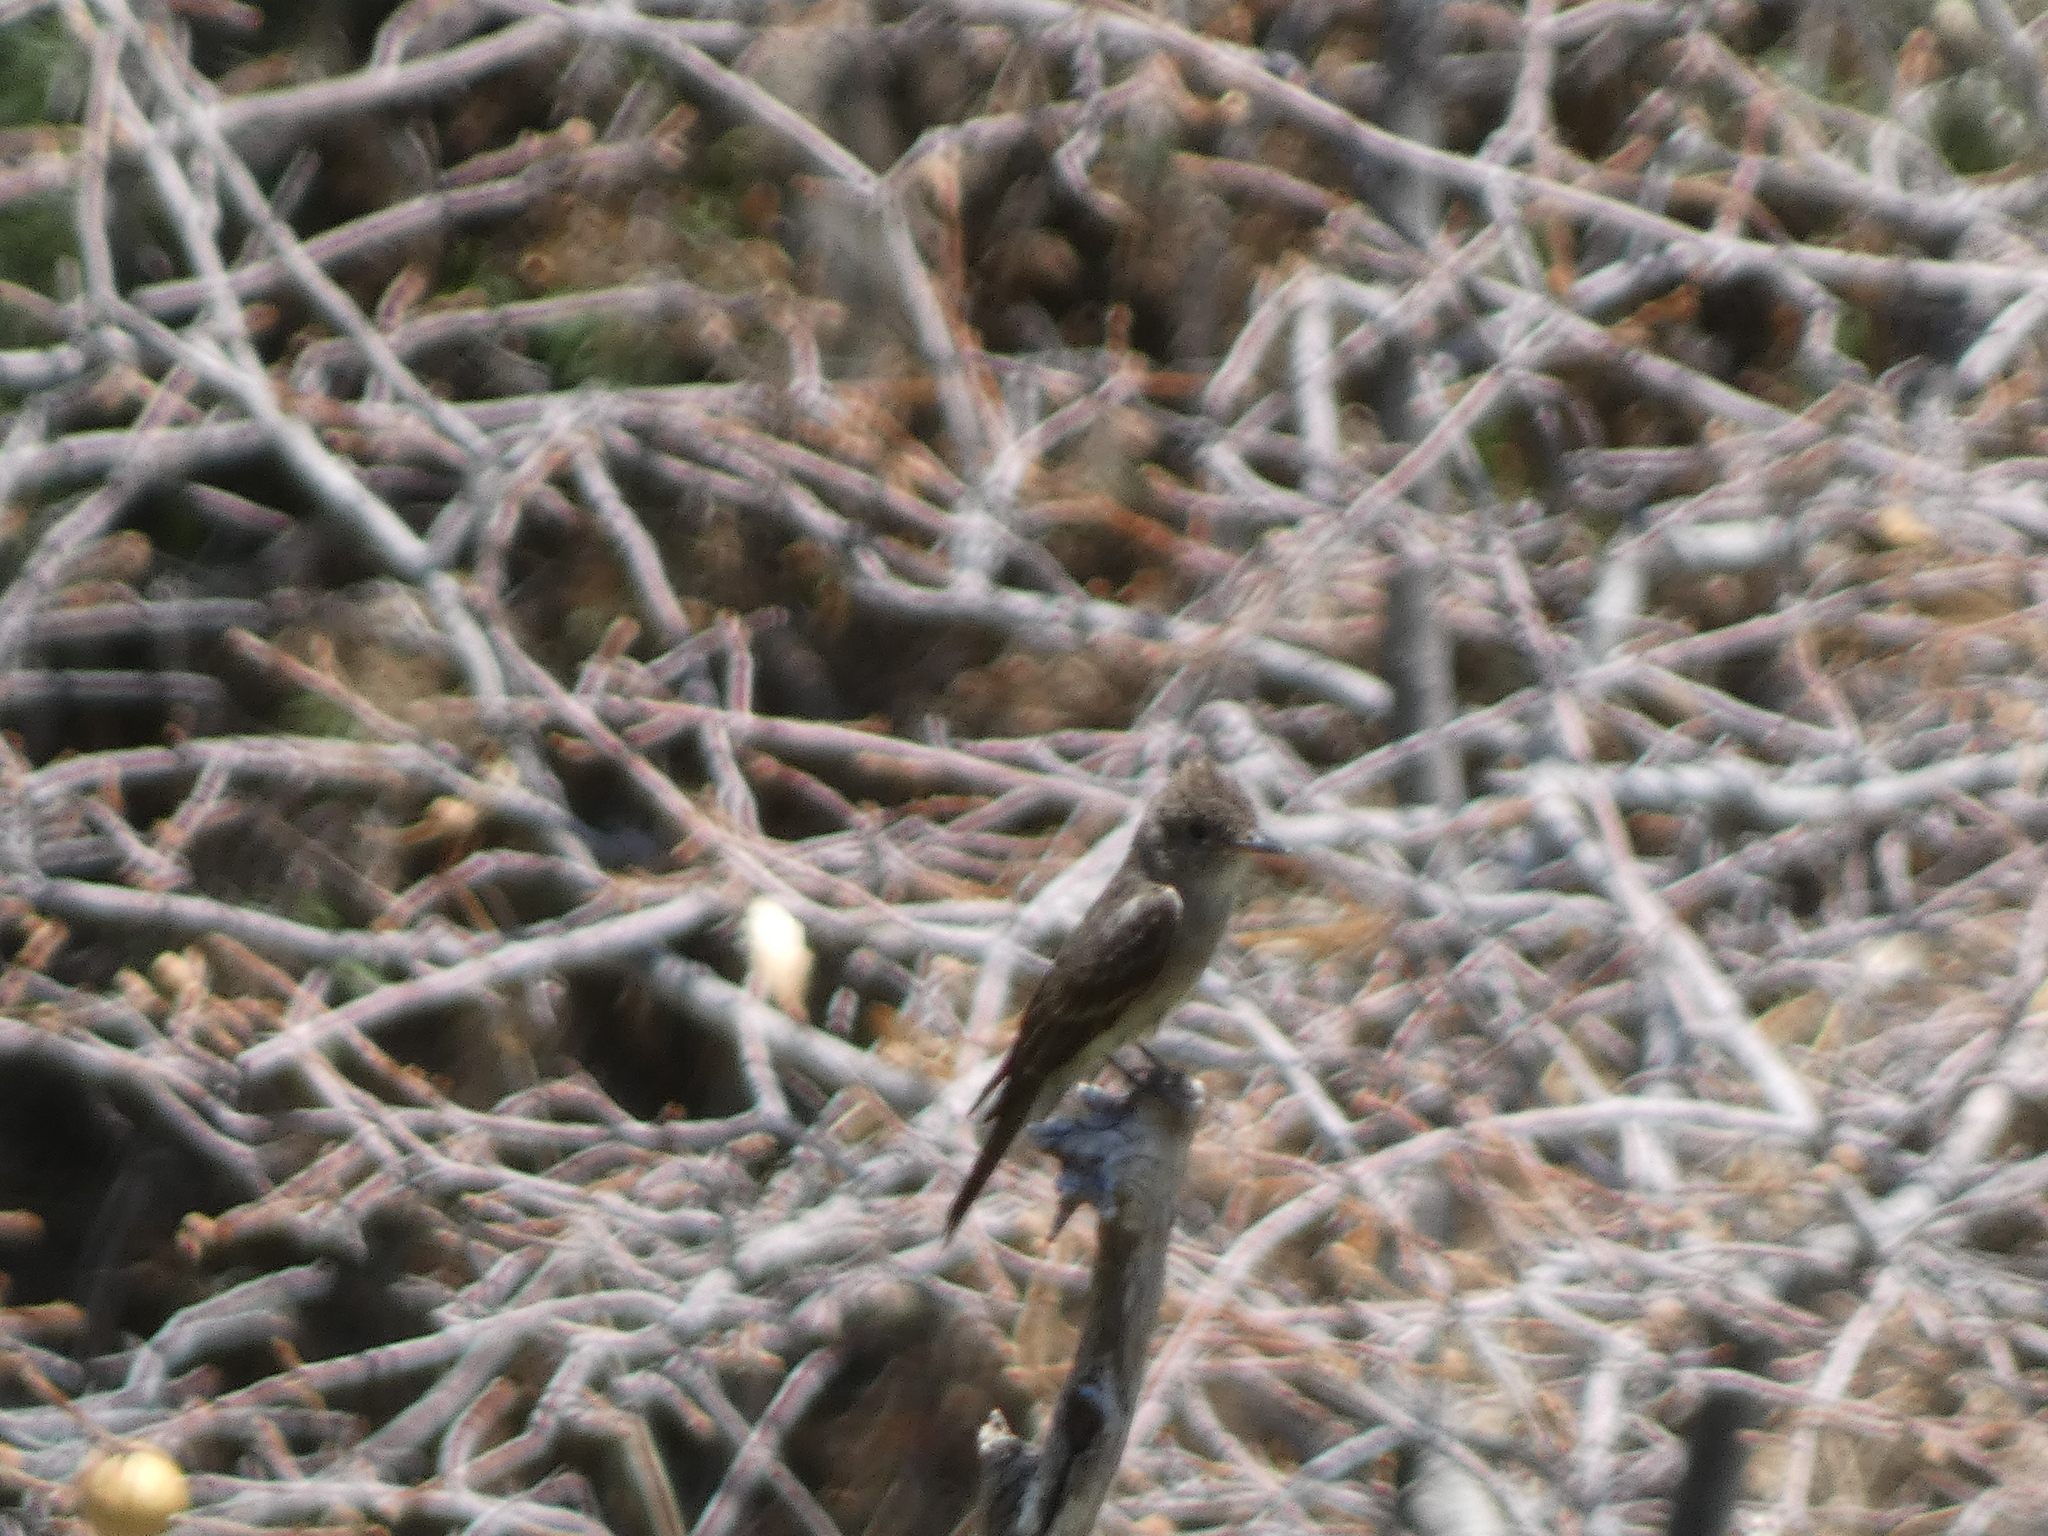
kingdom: Animalia
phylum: Chordata
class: Aves
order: Passeriformes
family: Tyrannidae
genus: Contopus
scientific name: Contopus sordidulus
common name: Western wood-pewee
